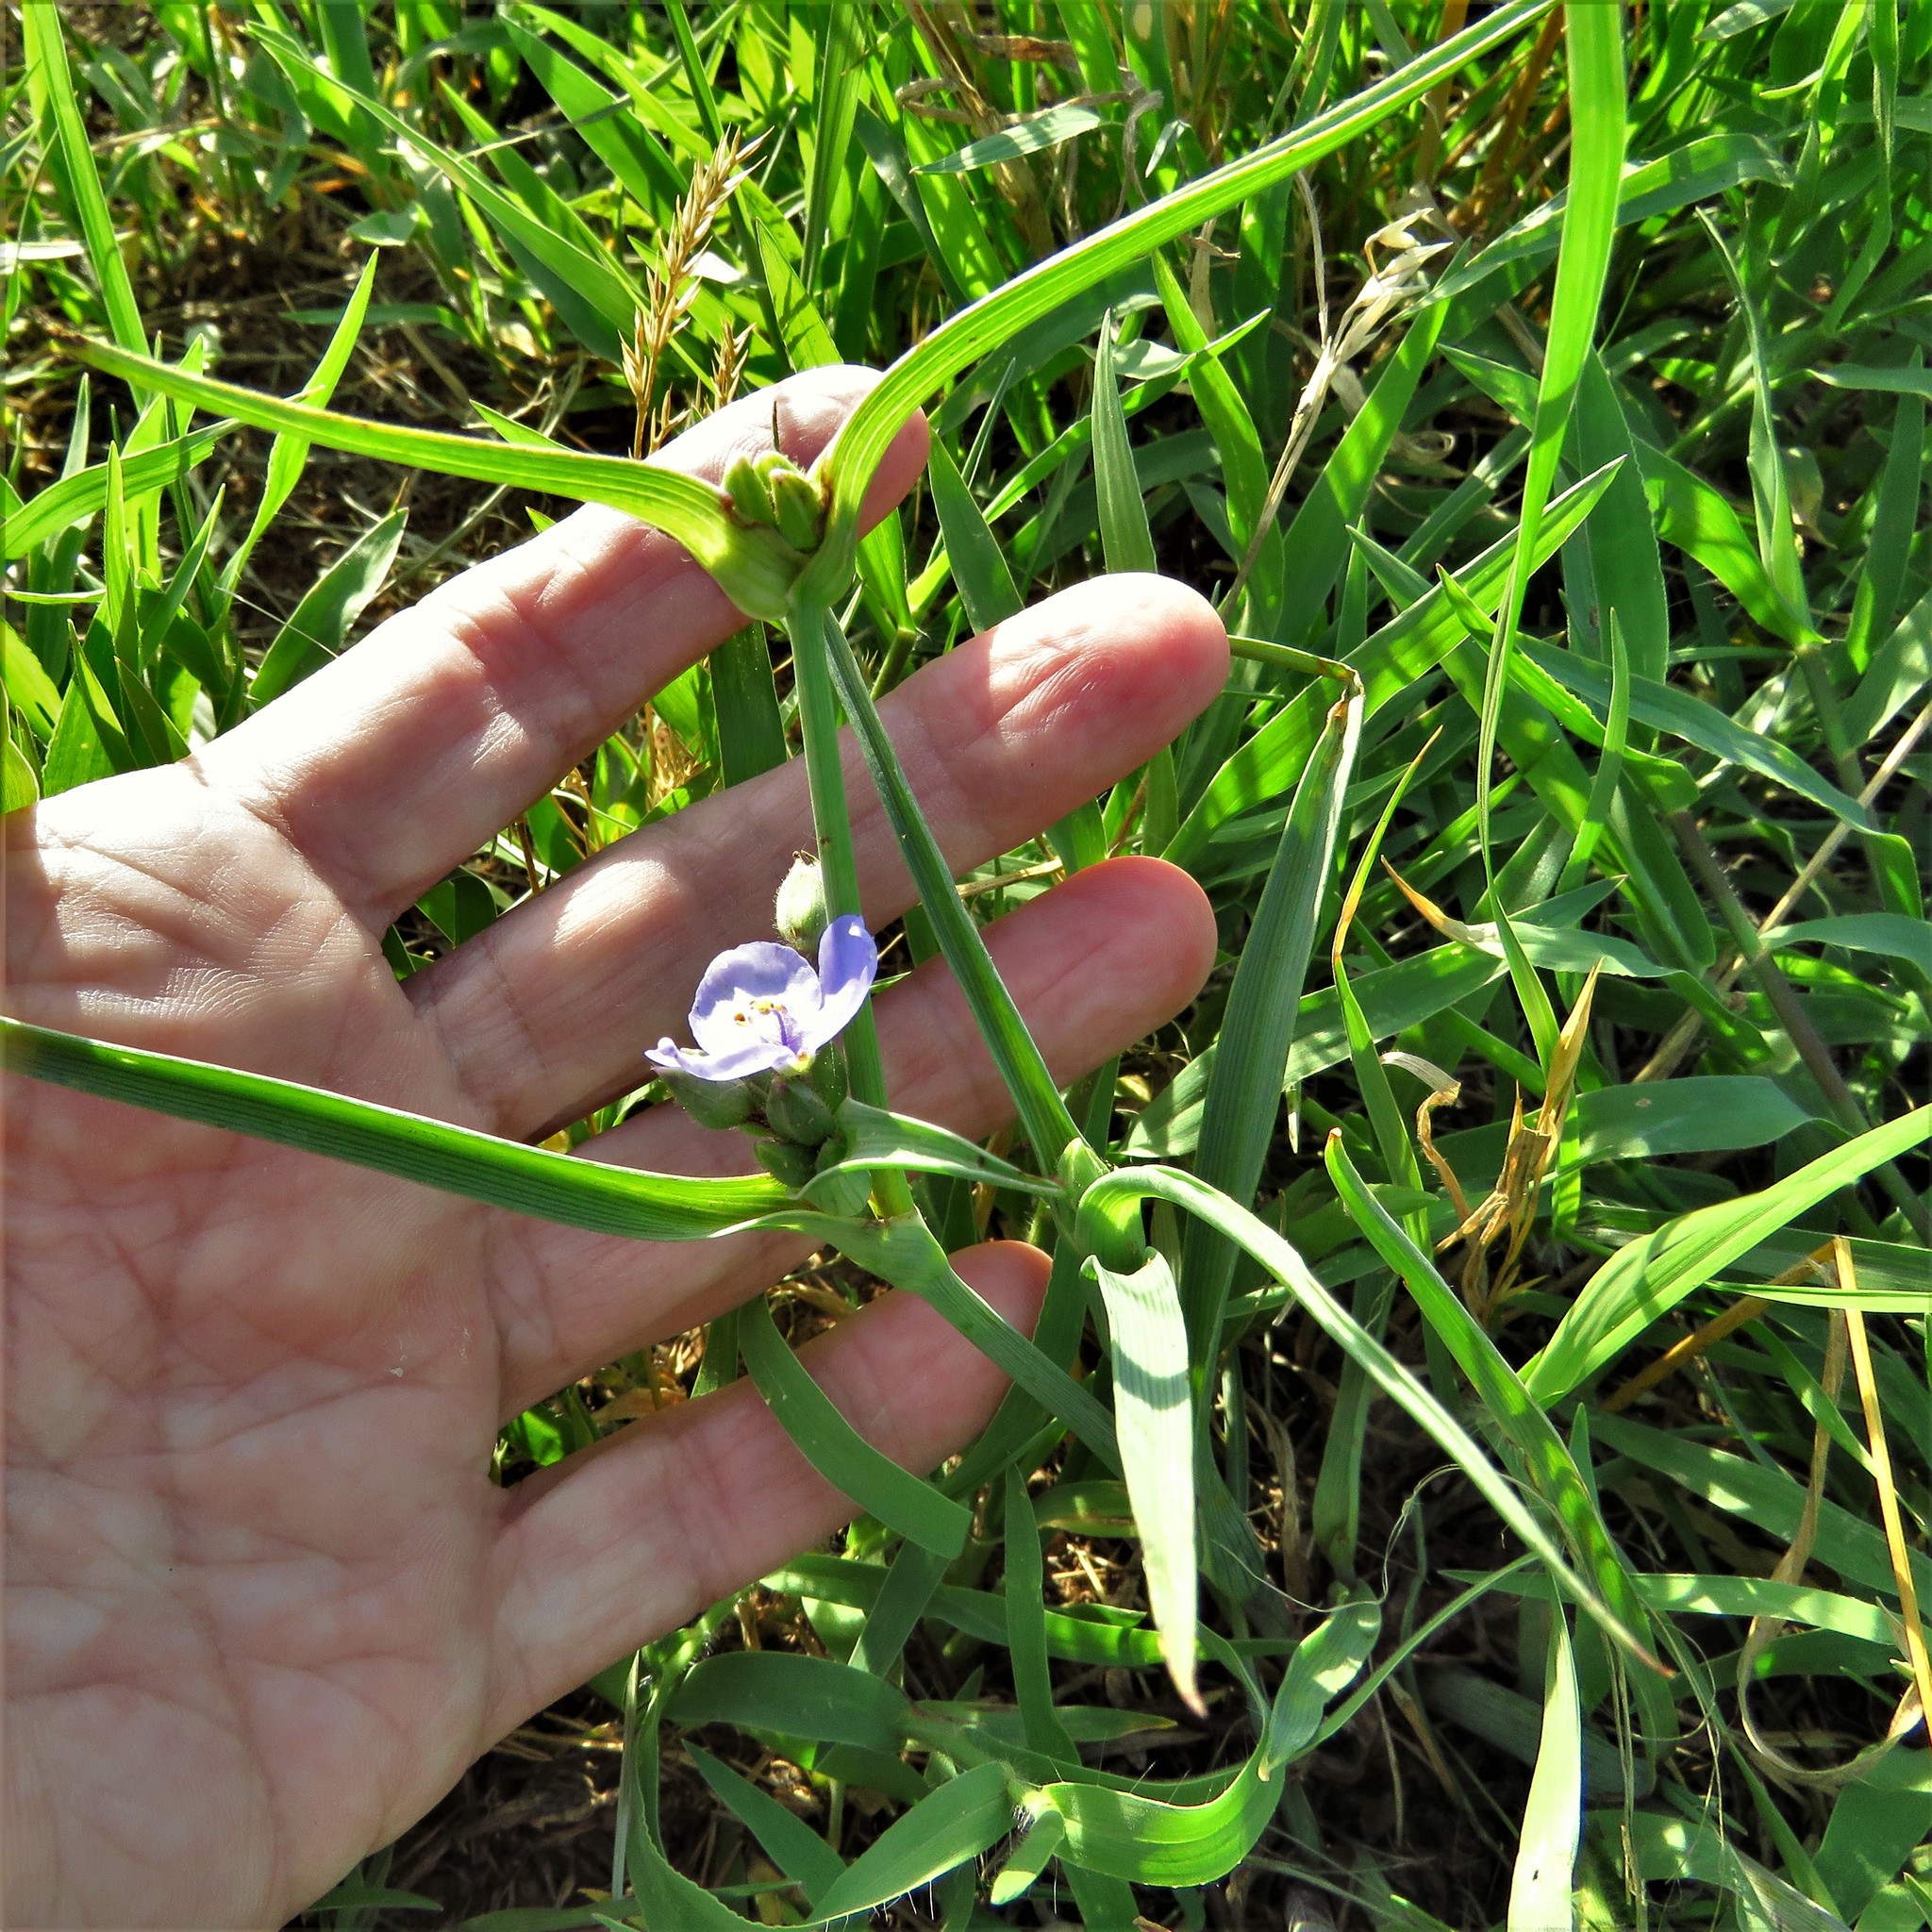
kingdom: Plantae
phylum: Tracheophyta
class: Liliopsida
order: Commelinales
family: Commelinaceae
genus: Tradescantia
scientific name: Tradescantia occidentalis
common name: Prairie spiderwort
